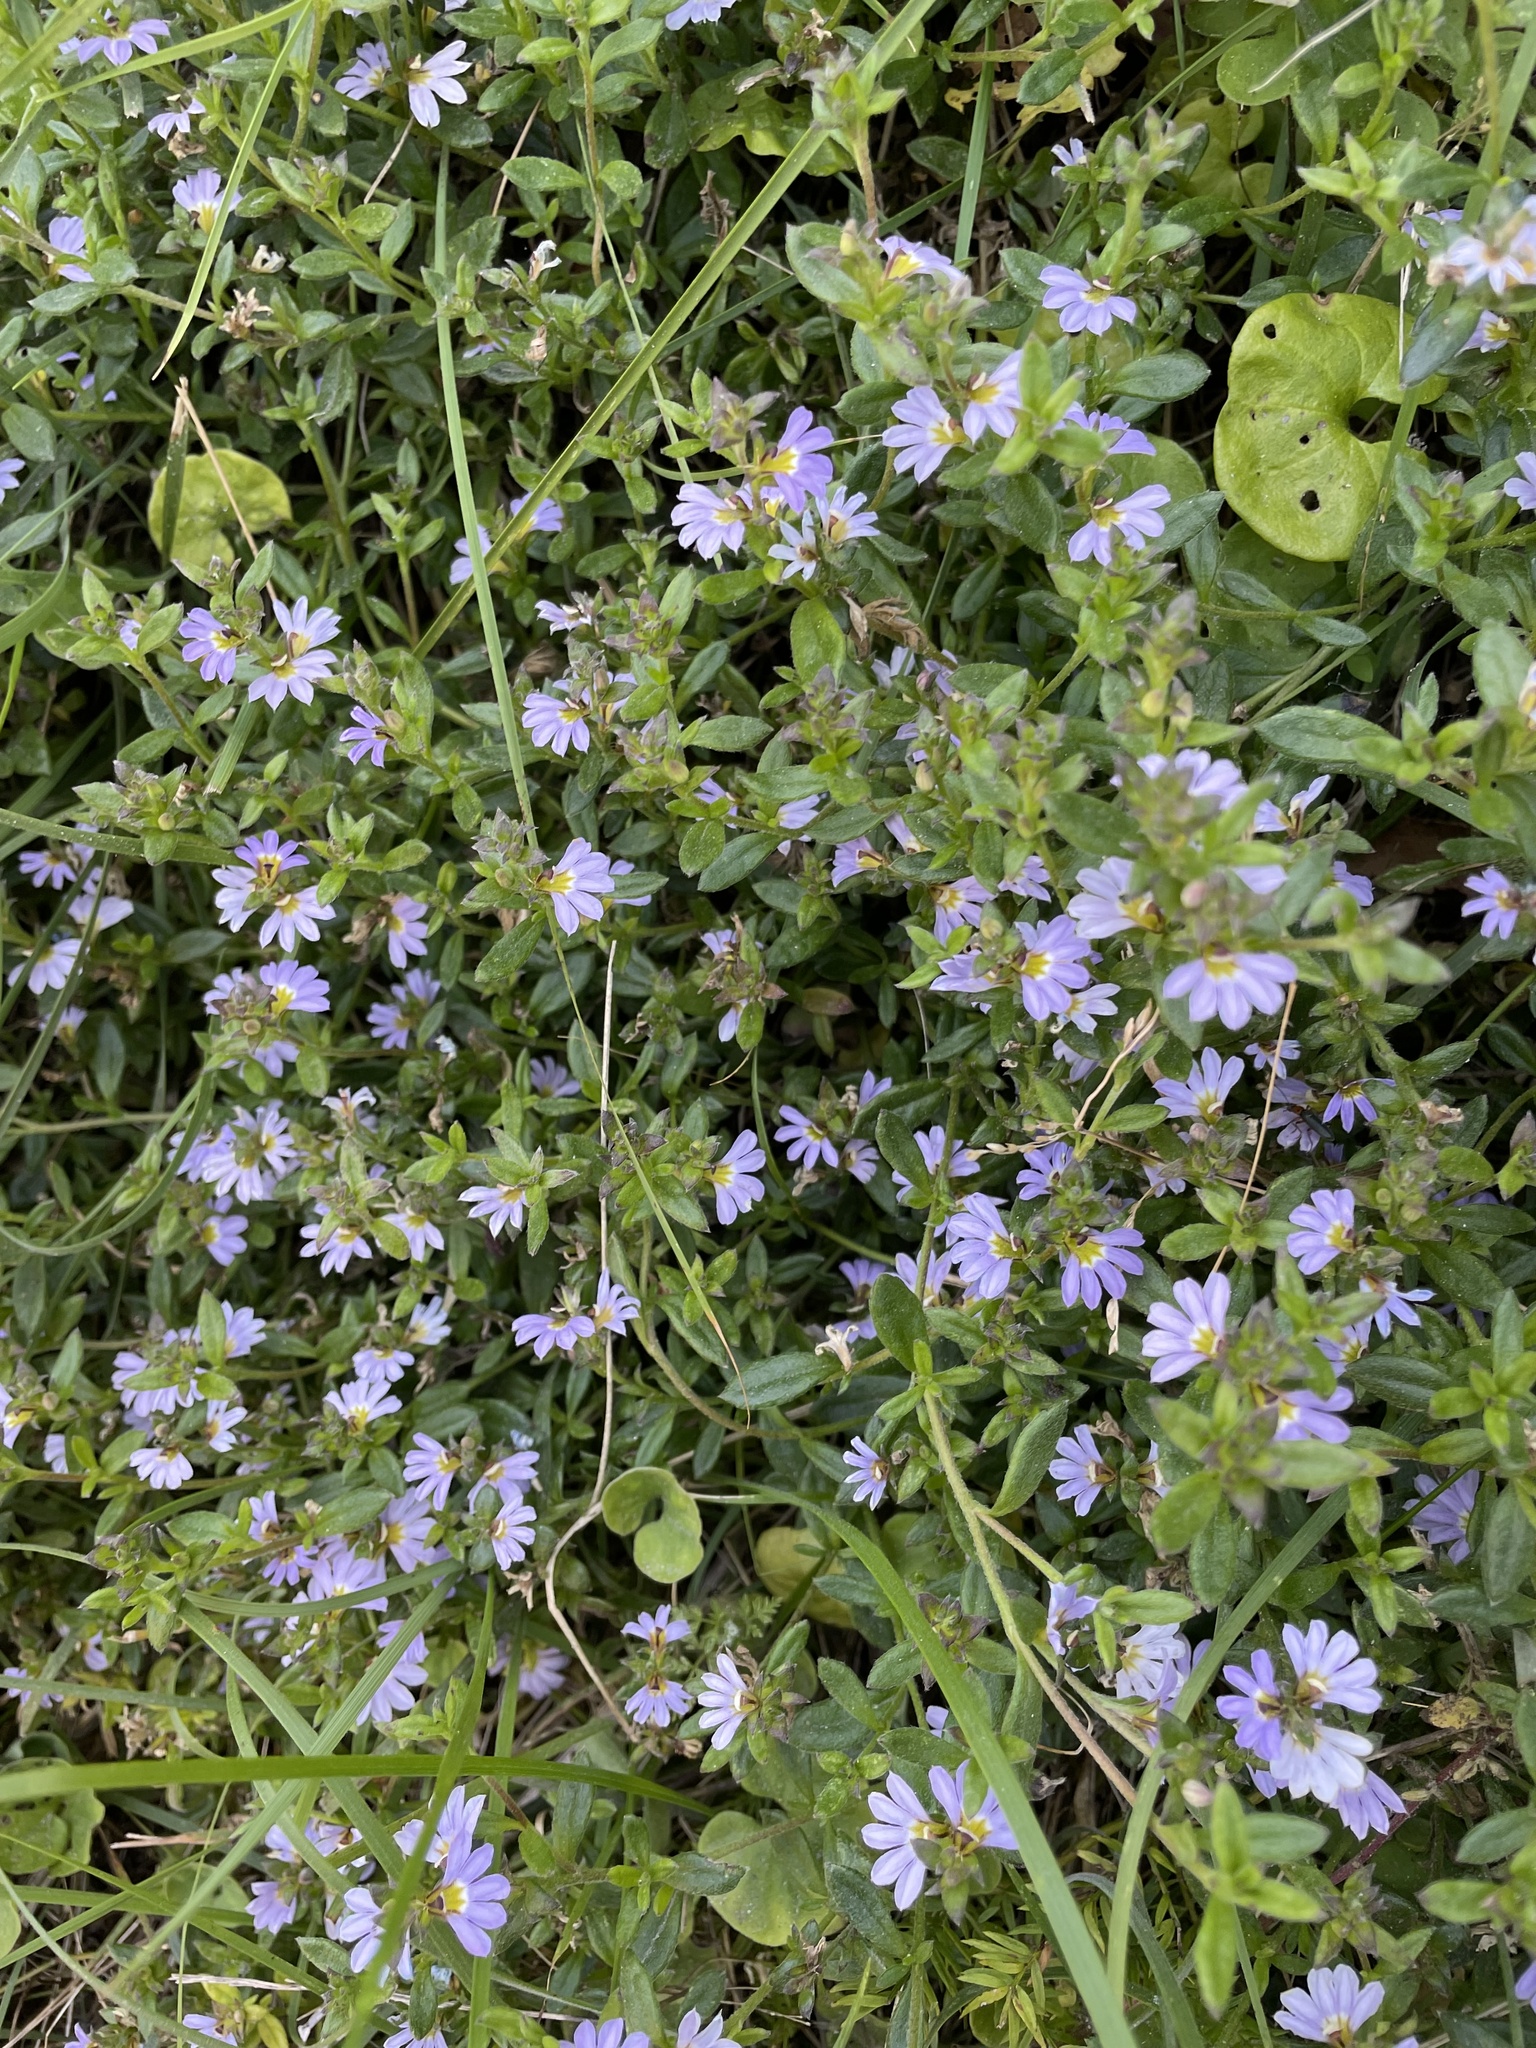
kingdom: Plantae
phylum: Tracheophyta
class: Magnoliopsida
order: Asterales
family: Goodeniaceae
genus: Scaevola
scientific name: Scaevola albida
